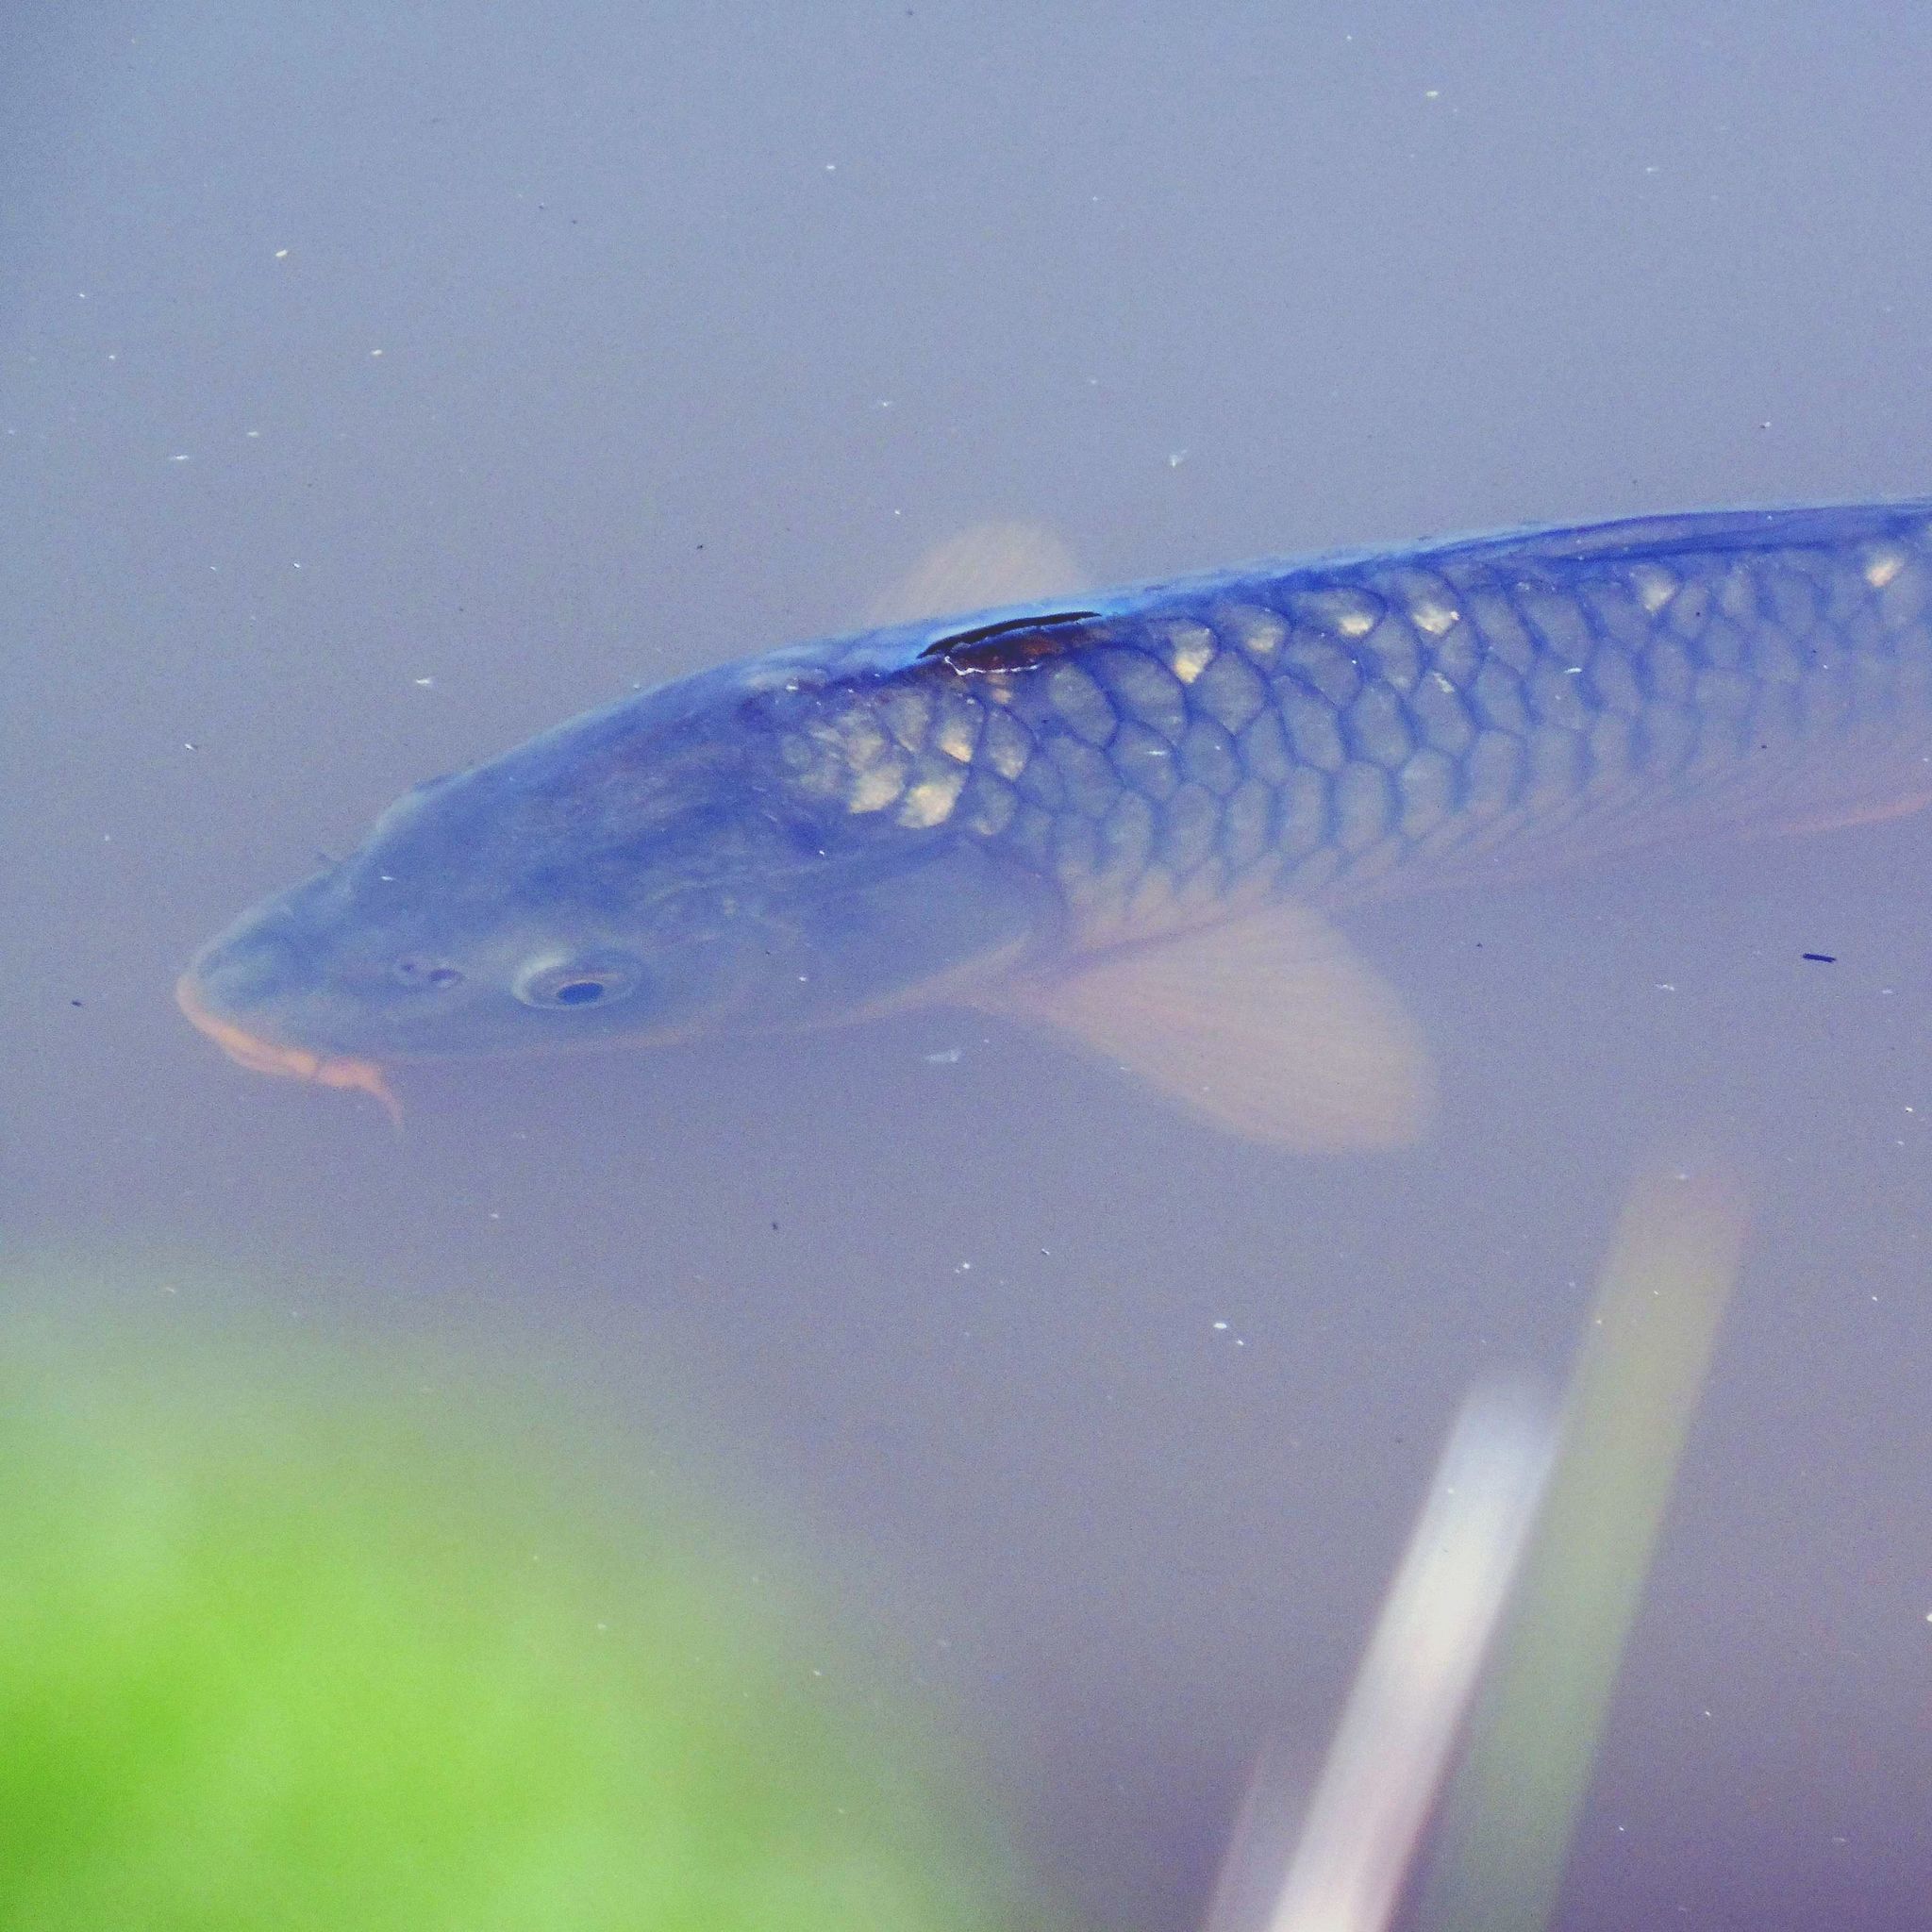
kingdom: Animalia
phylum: Chordata
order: Cypriniformes
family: Cyprinidae
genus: Cyprinus
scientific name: Cyprinus carpio
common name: Common carp
